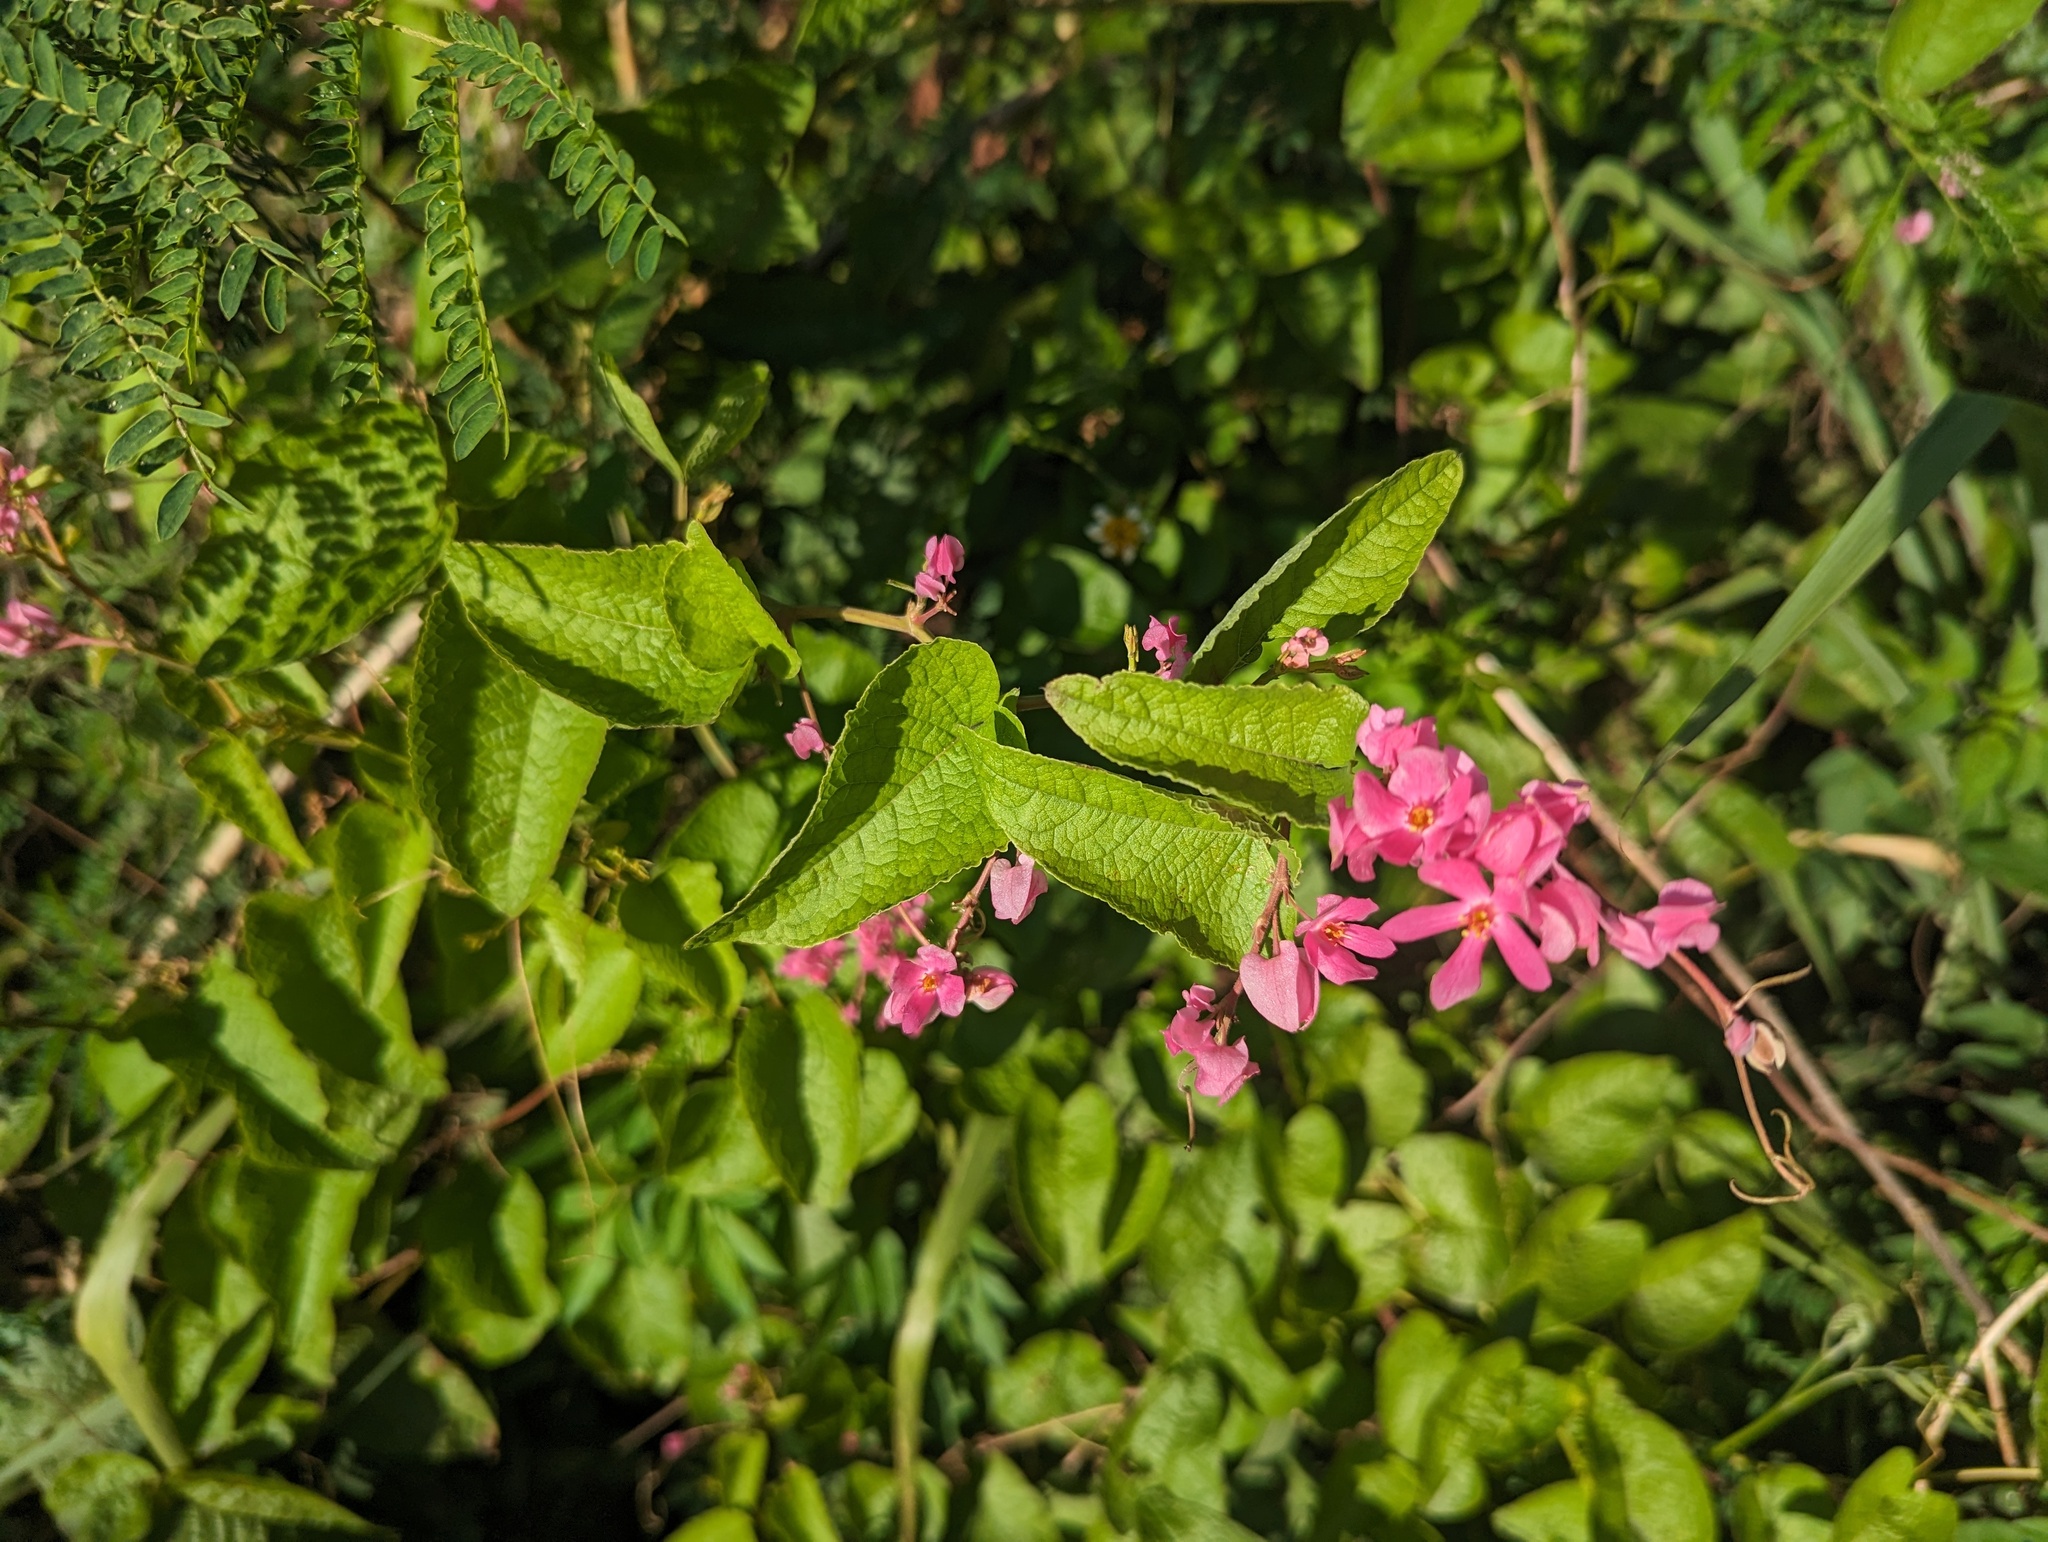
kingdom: Plantae
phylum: Tracheophyta
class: Magnoliopsida
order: Caryophyllales
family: Polygonaceae
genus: Antigonon
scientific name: Antigonon leptopus
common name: Coral vine
